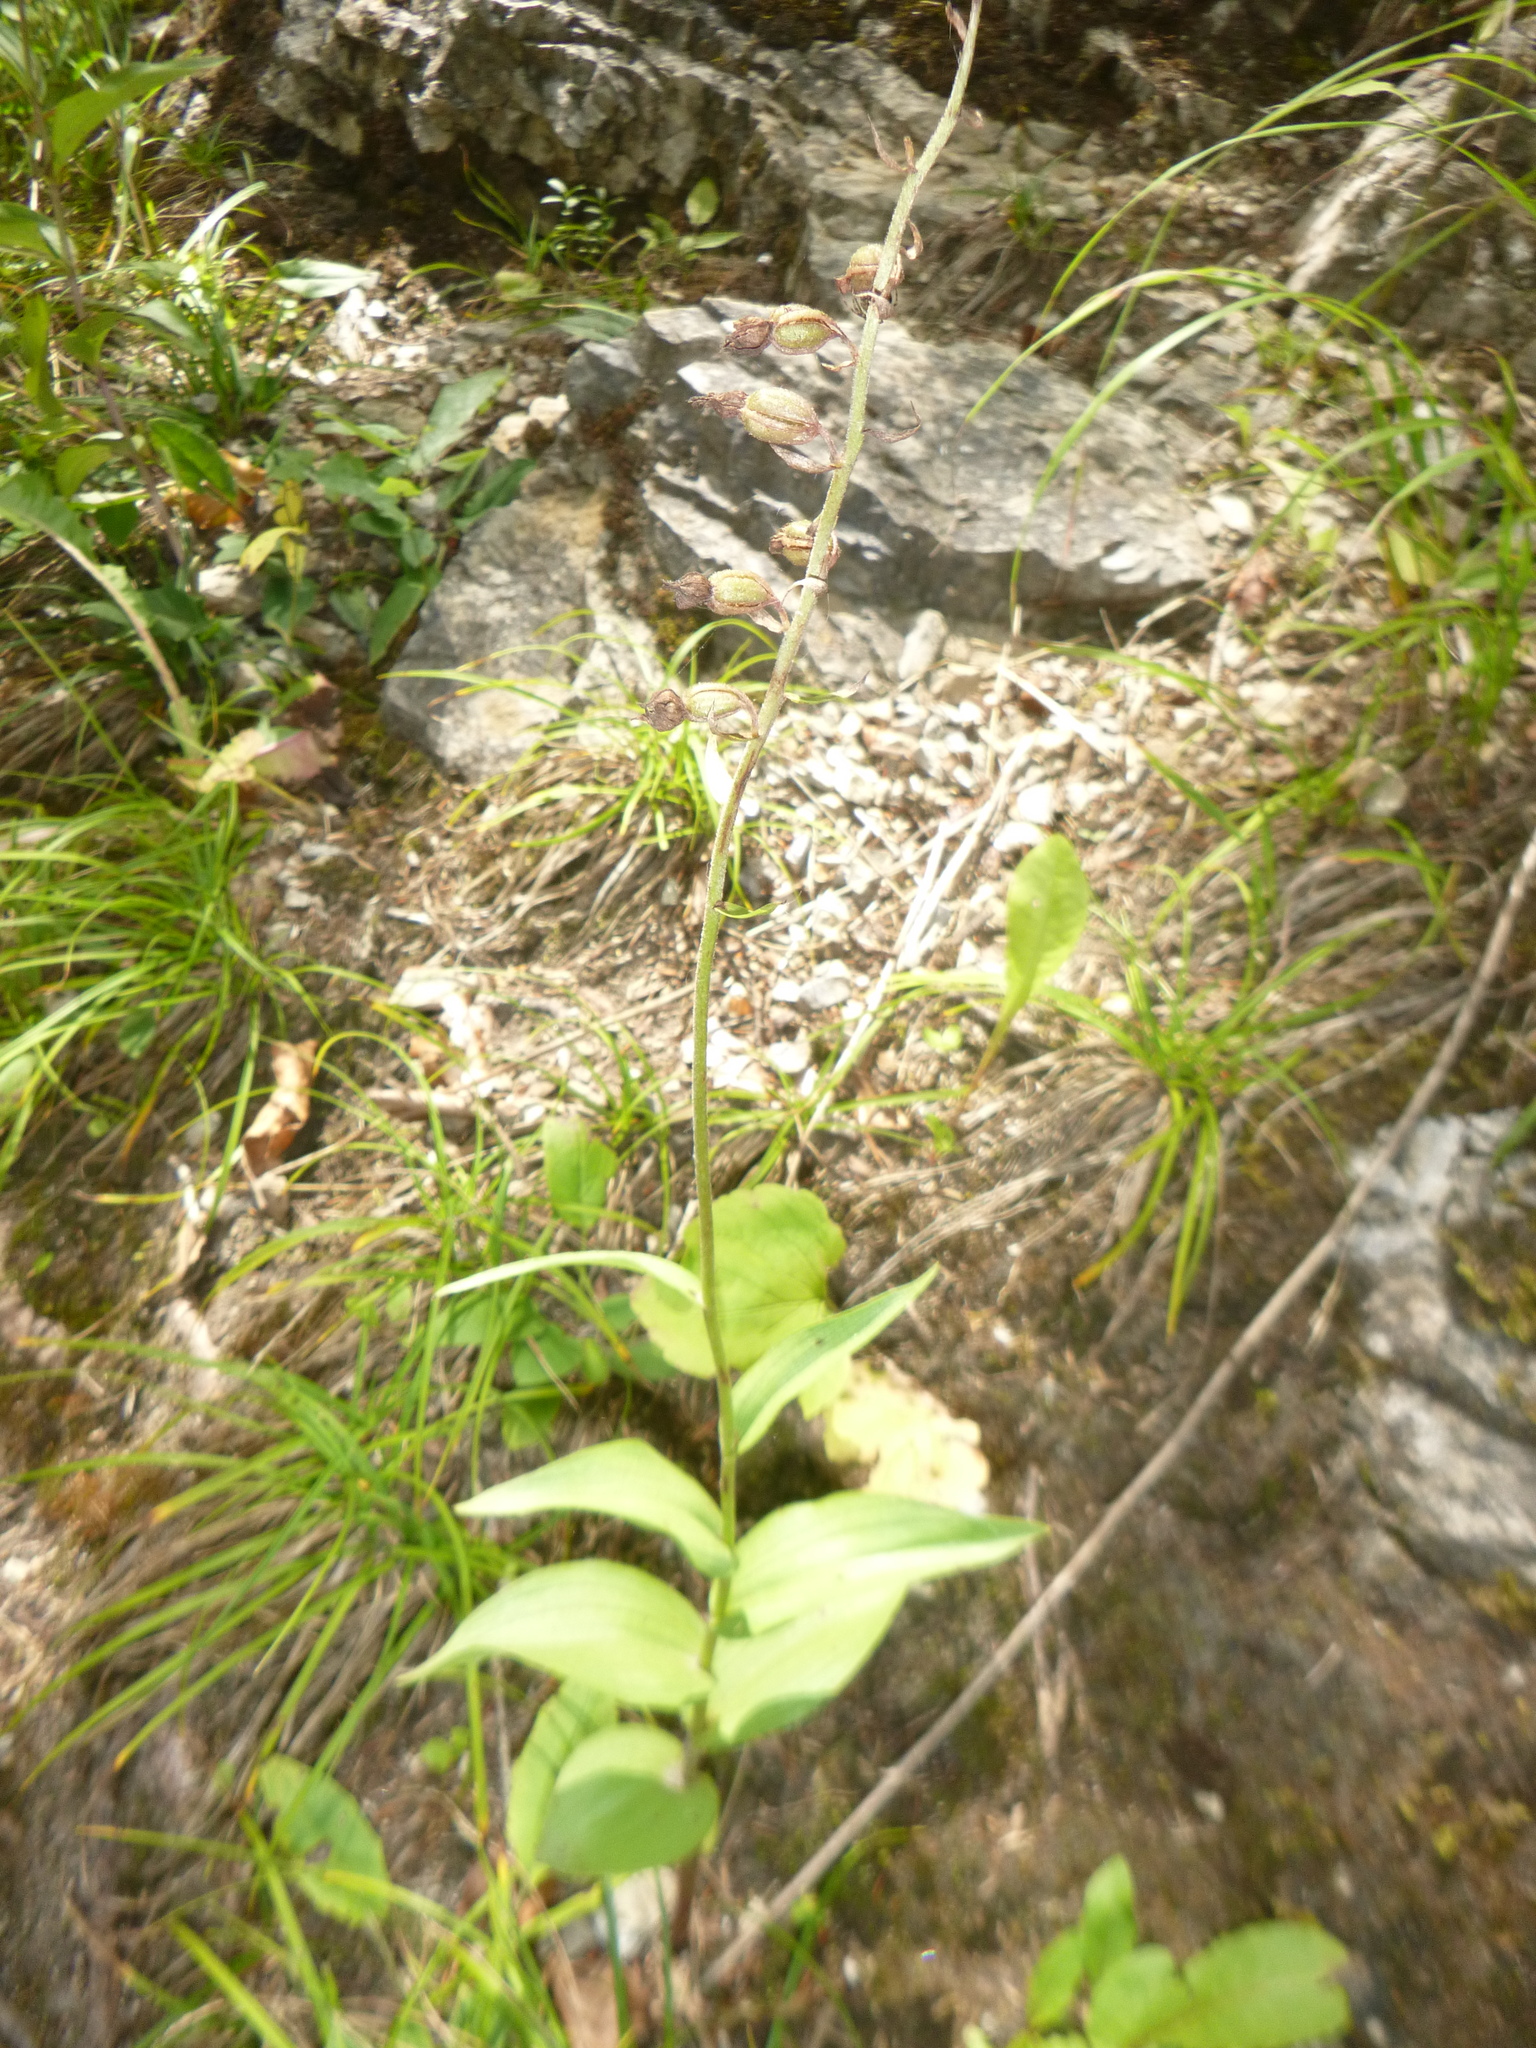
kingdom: Plantae
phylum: Tracheophyta
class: Liliopsida
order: Asparagales
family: Orchidaceae
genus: Epipactis
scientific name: Epipactis atrorubens
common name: Dark-red helleborine
